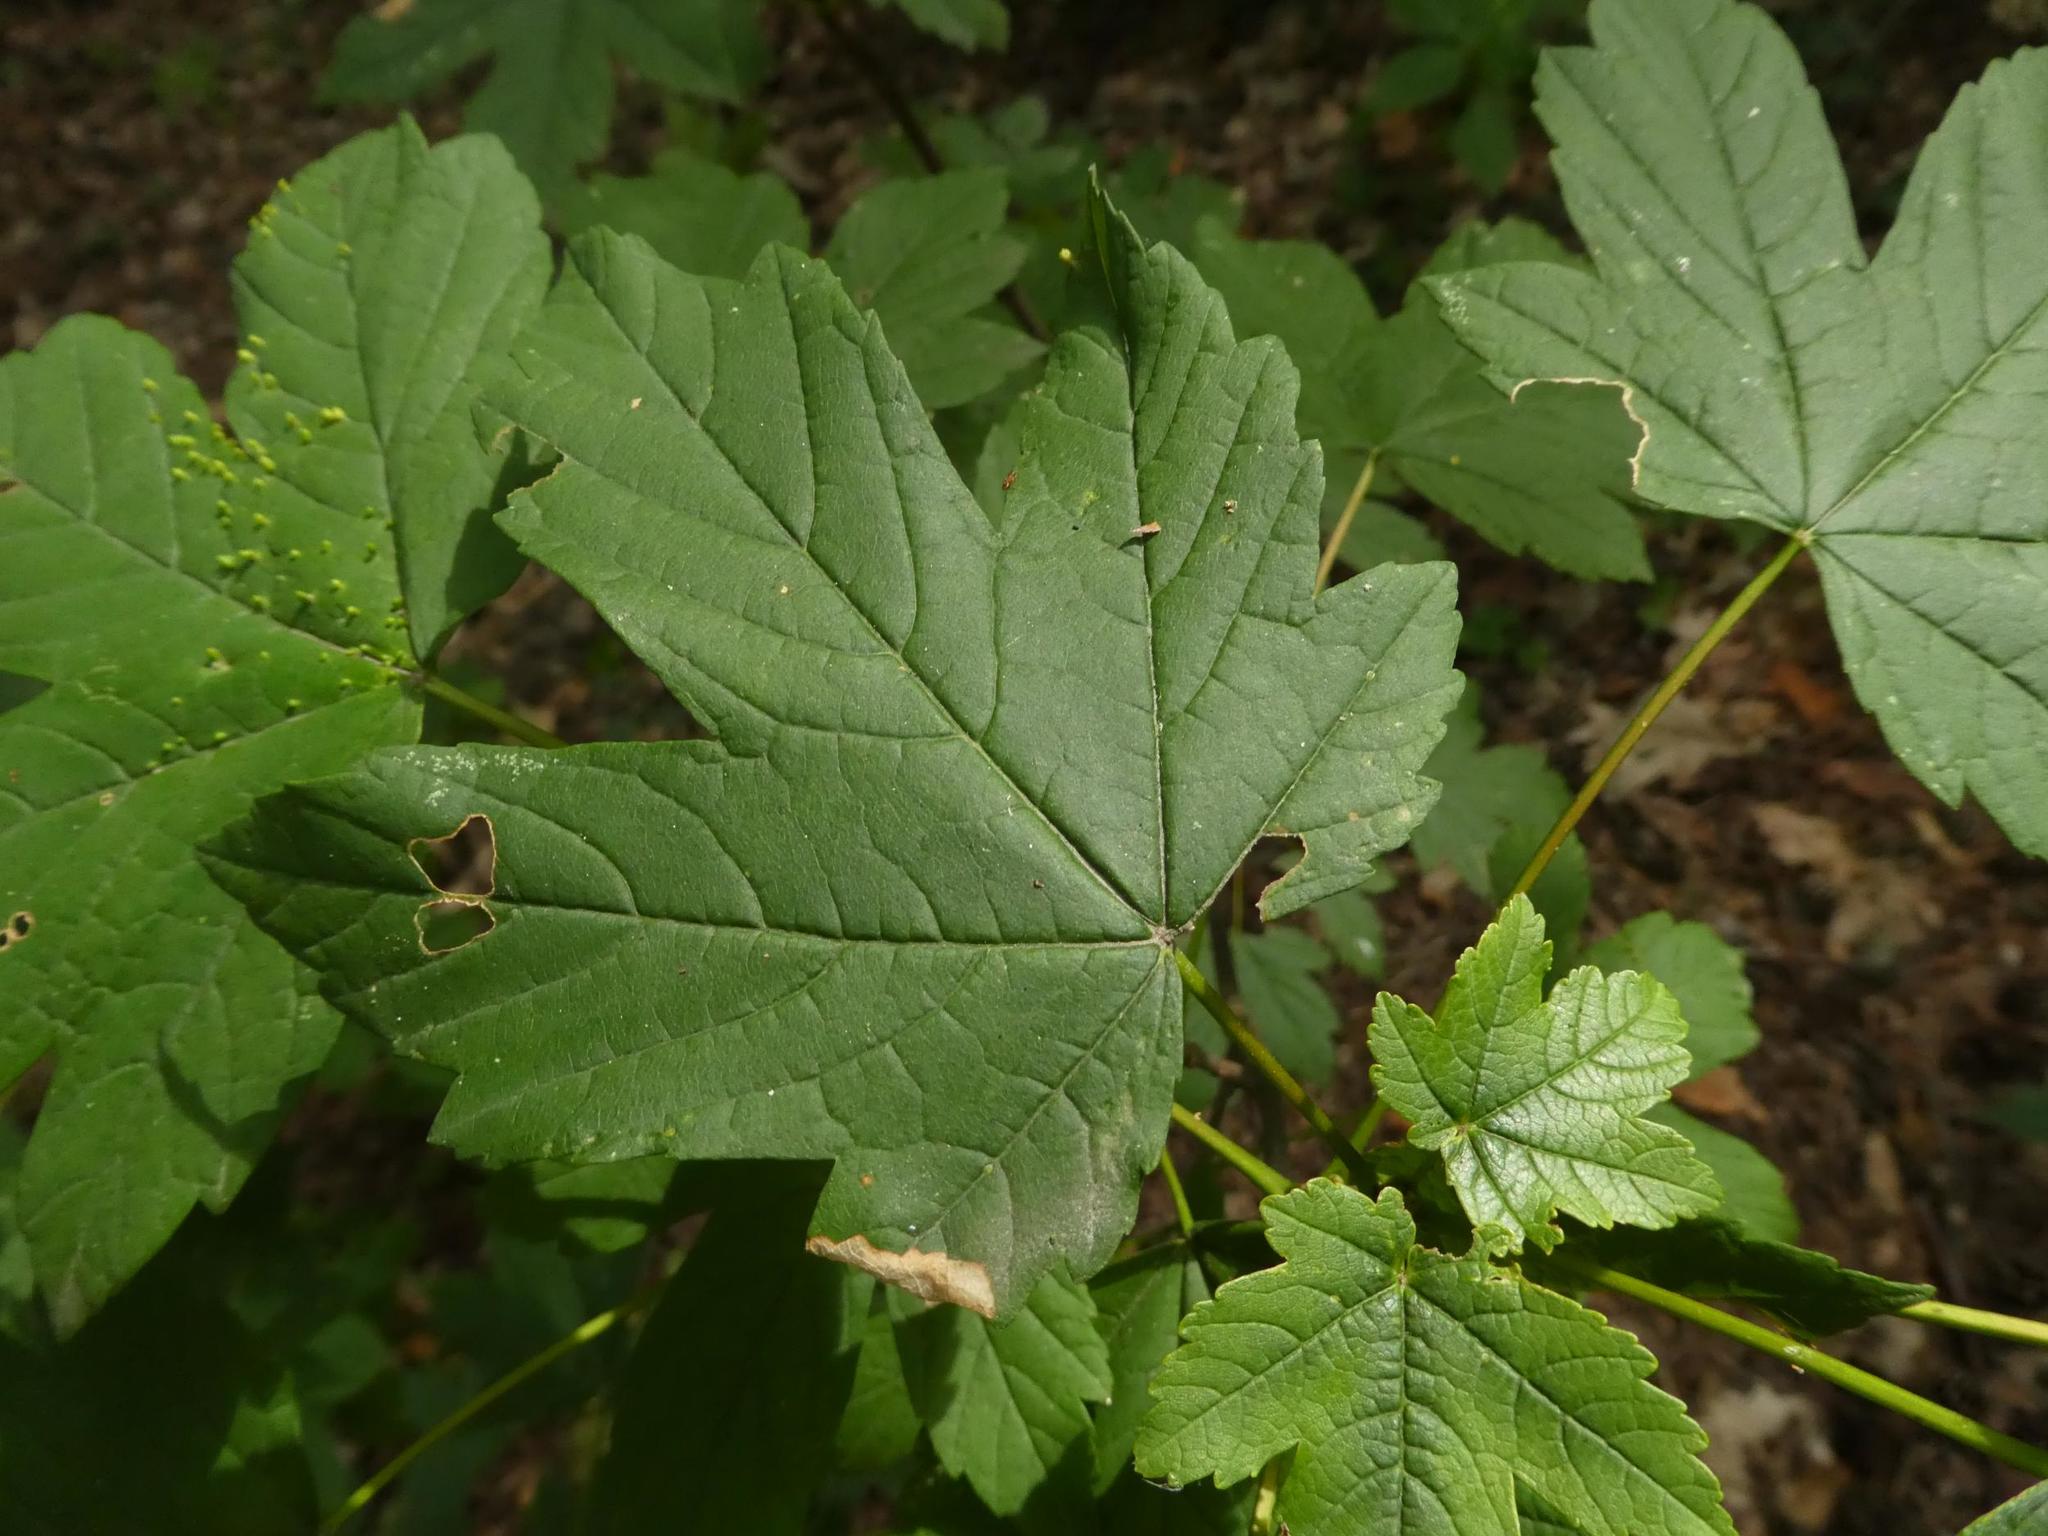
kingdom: Plantae
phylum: Tracheophyta
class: Magnoliopsida
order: Sapindales
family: Sapindaceae
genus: Acer
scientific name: Acer pseudoplatanus
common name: Sycamore
